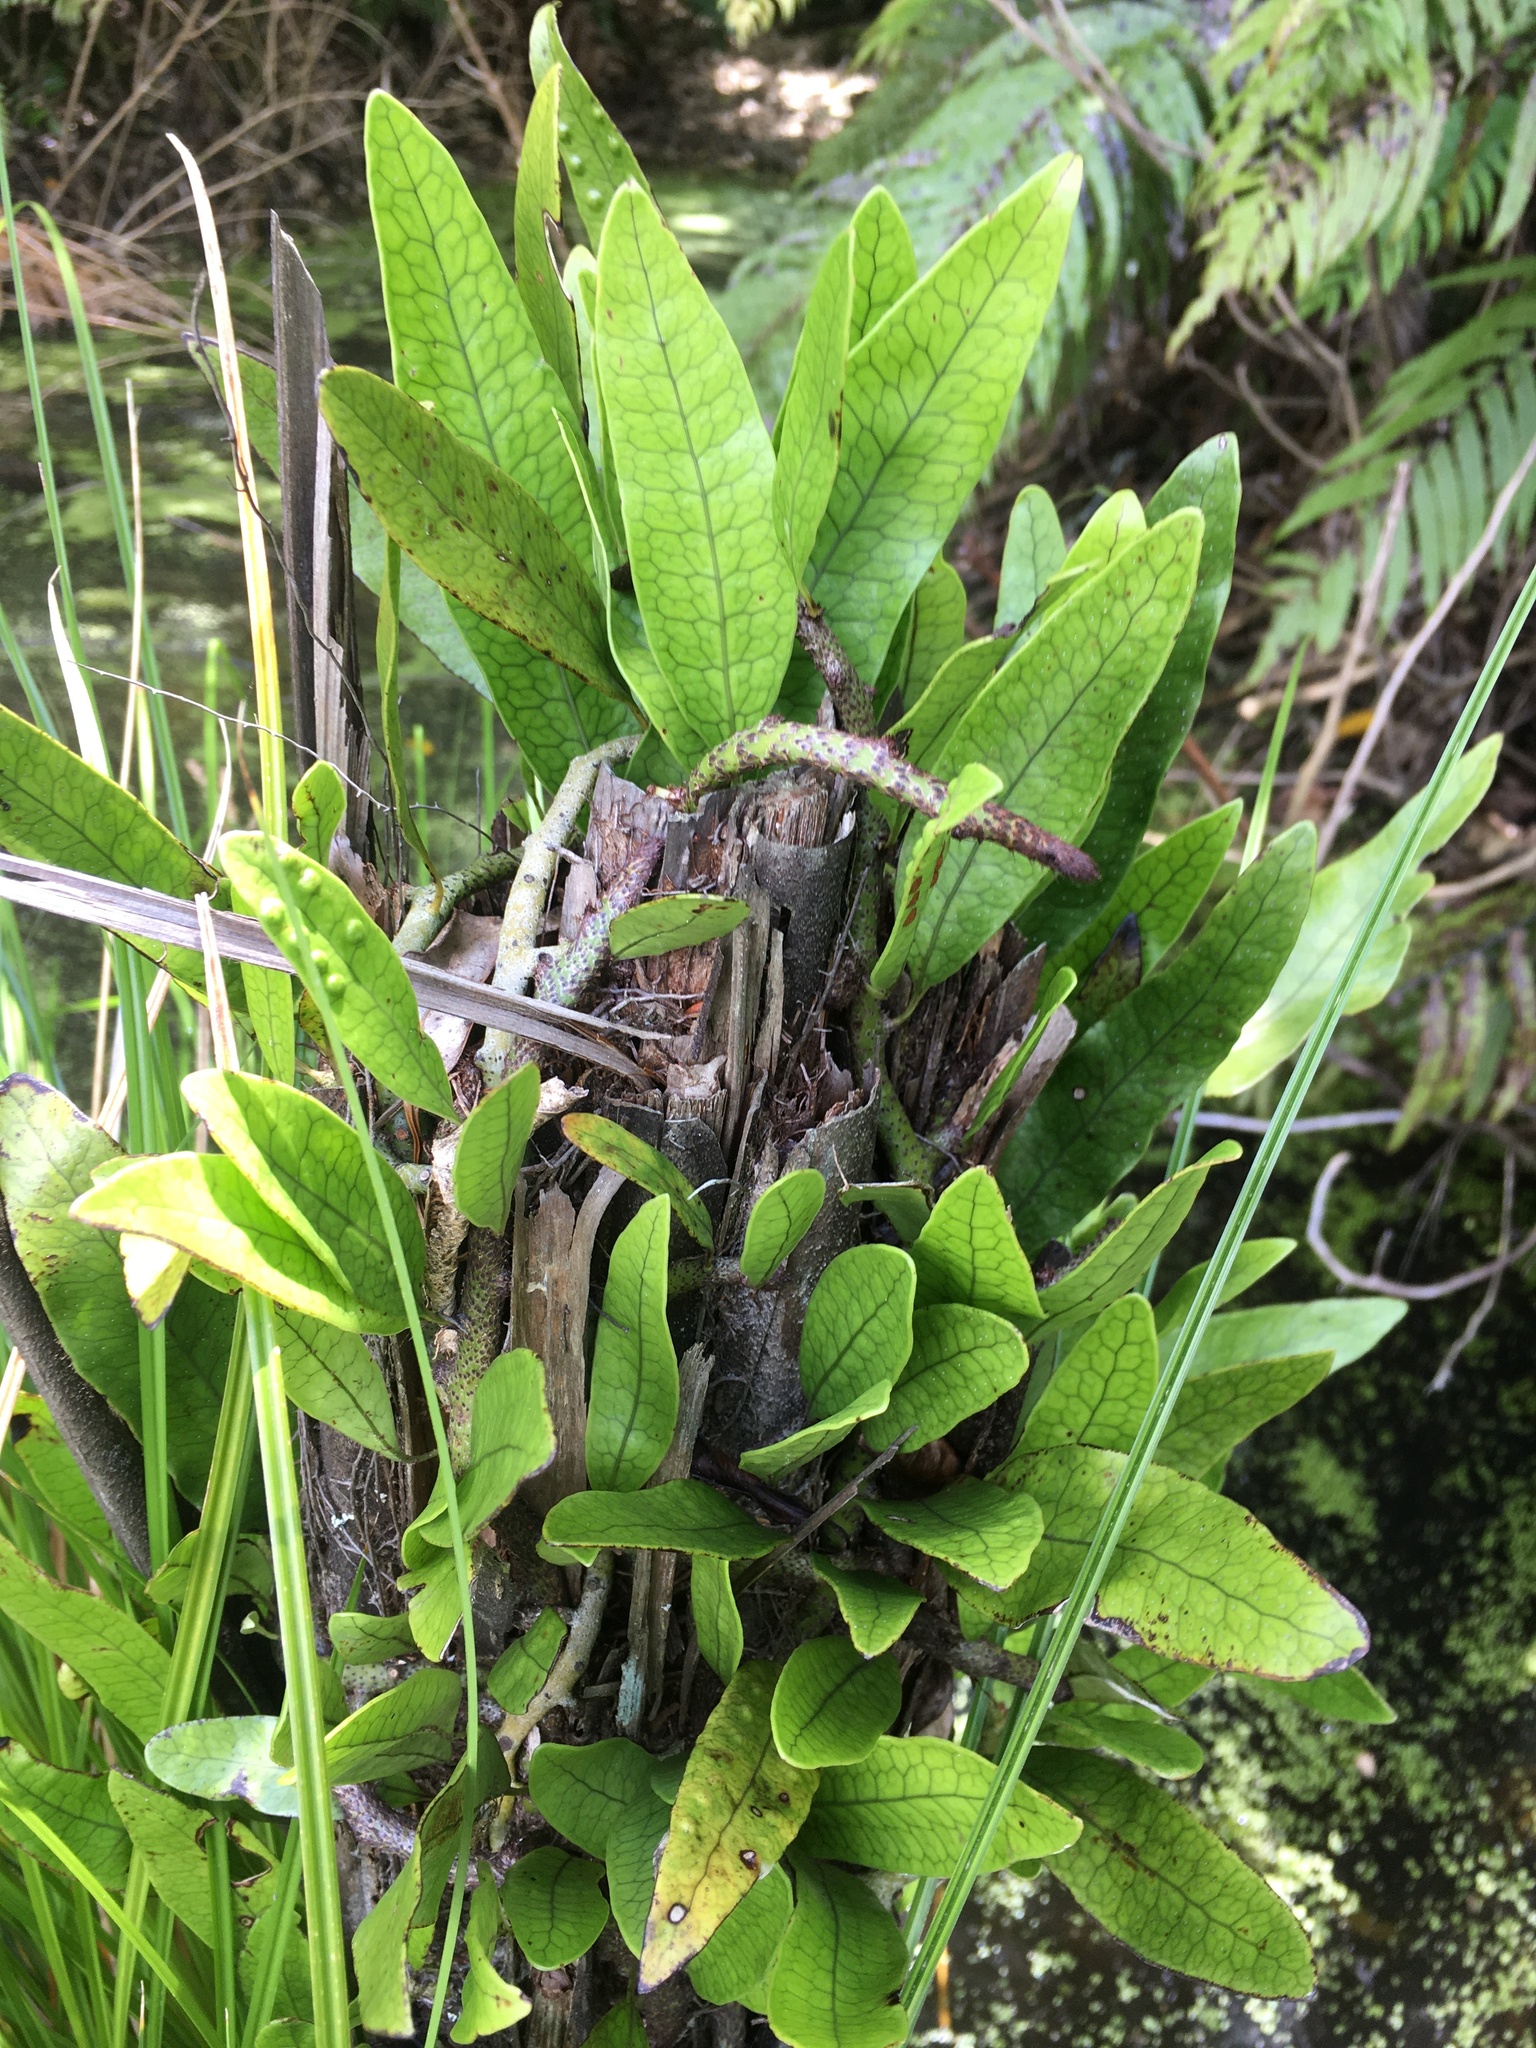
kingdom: Plantae
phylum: Tracheophyta
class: Polypodiopsida
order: Polypodiales
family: Polypodiaceae
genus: Lecanopteris
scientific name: Lecanopteris pustulata
